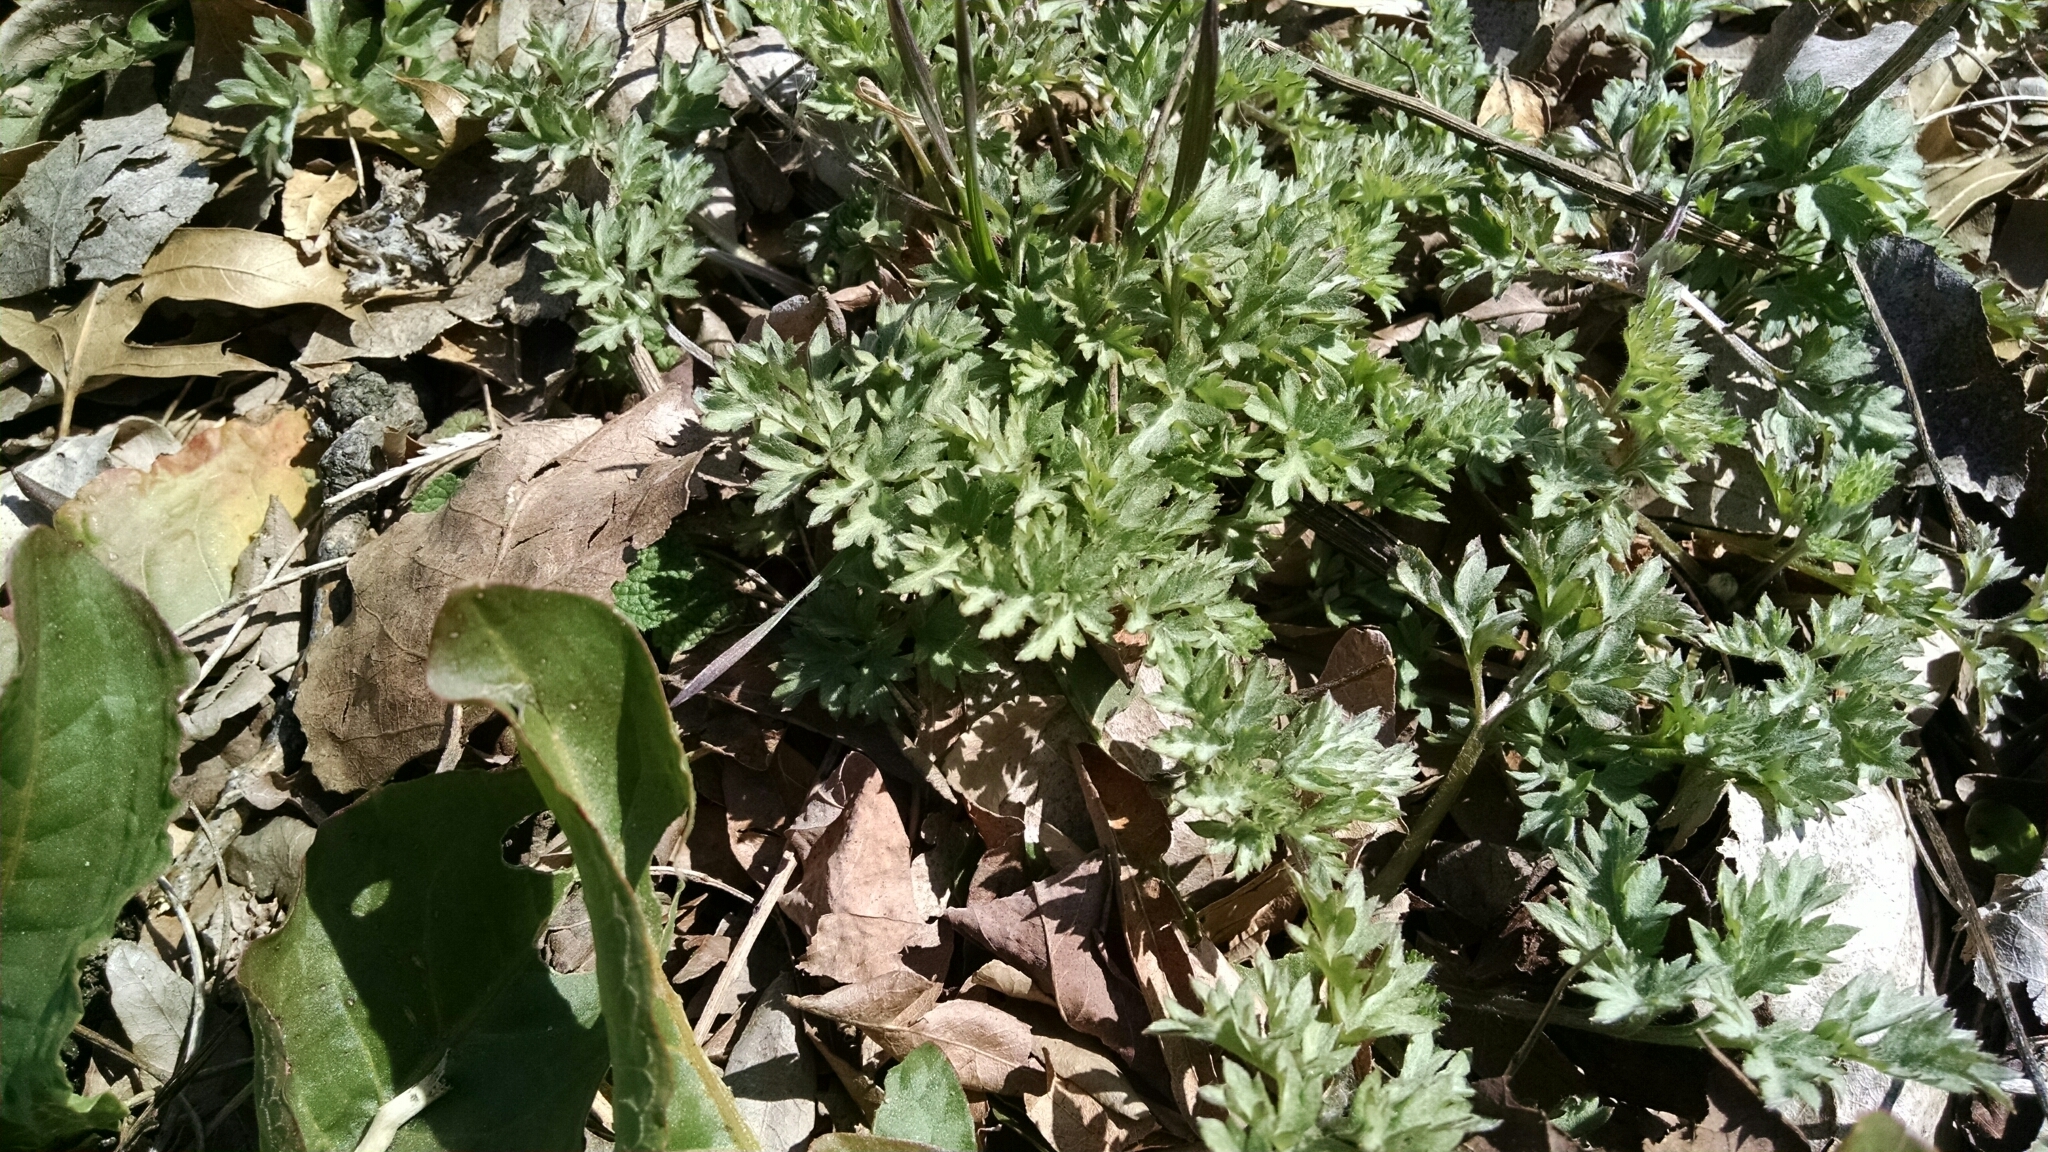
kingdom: Plantae
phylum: Tracheophyta
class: Magnoliopsida
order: Asterales
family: Asteraceae
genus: Artemisia
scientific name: Artemisia vulgaris
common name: Mugwort
